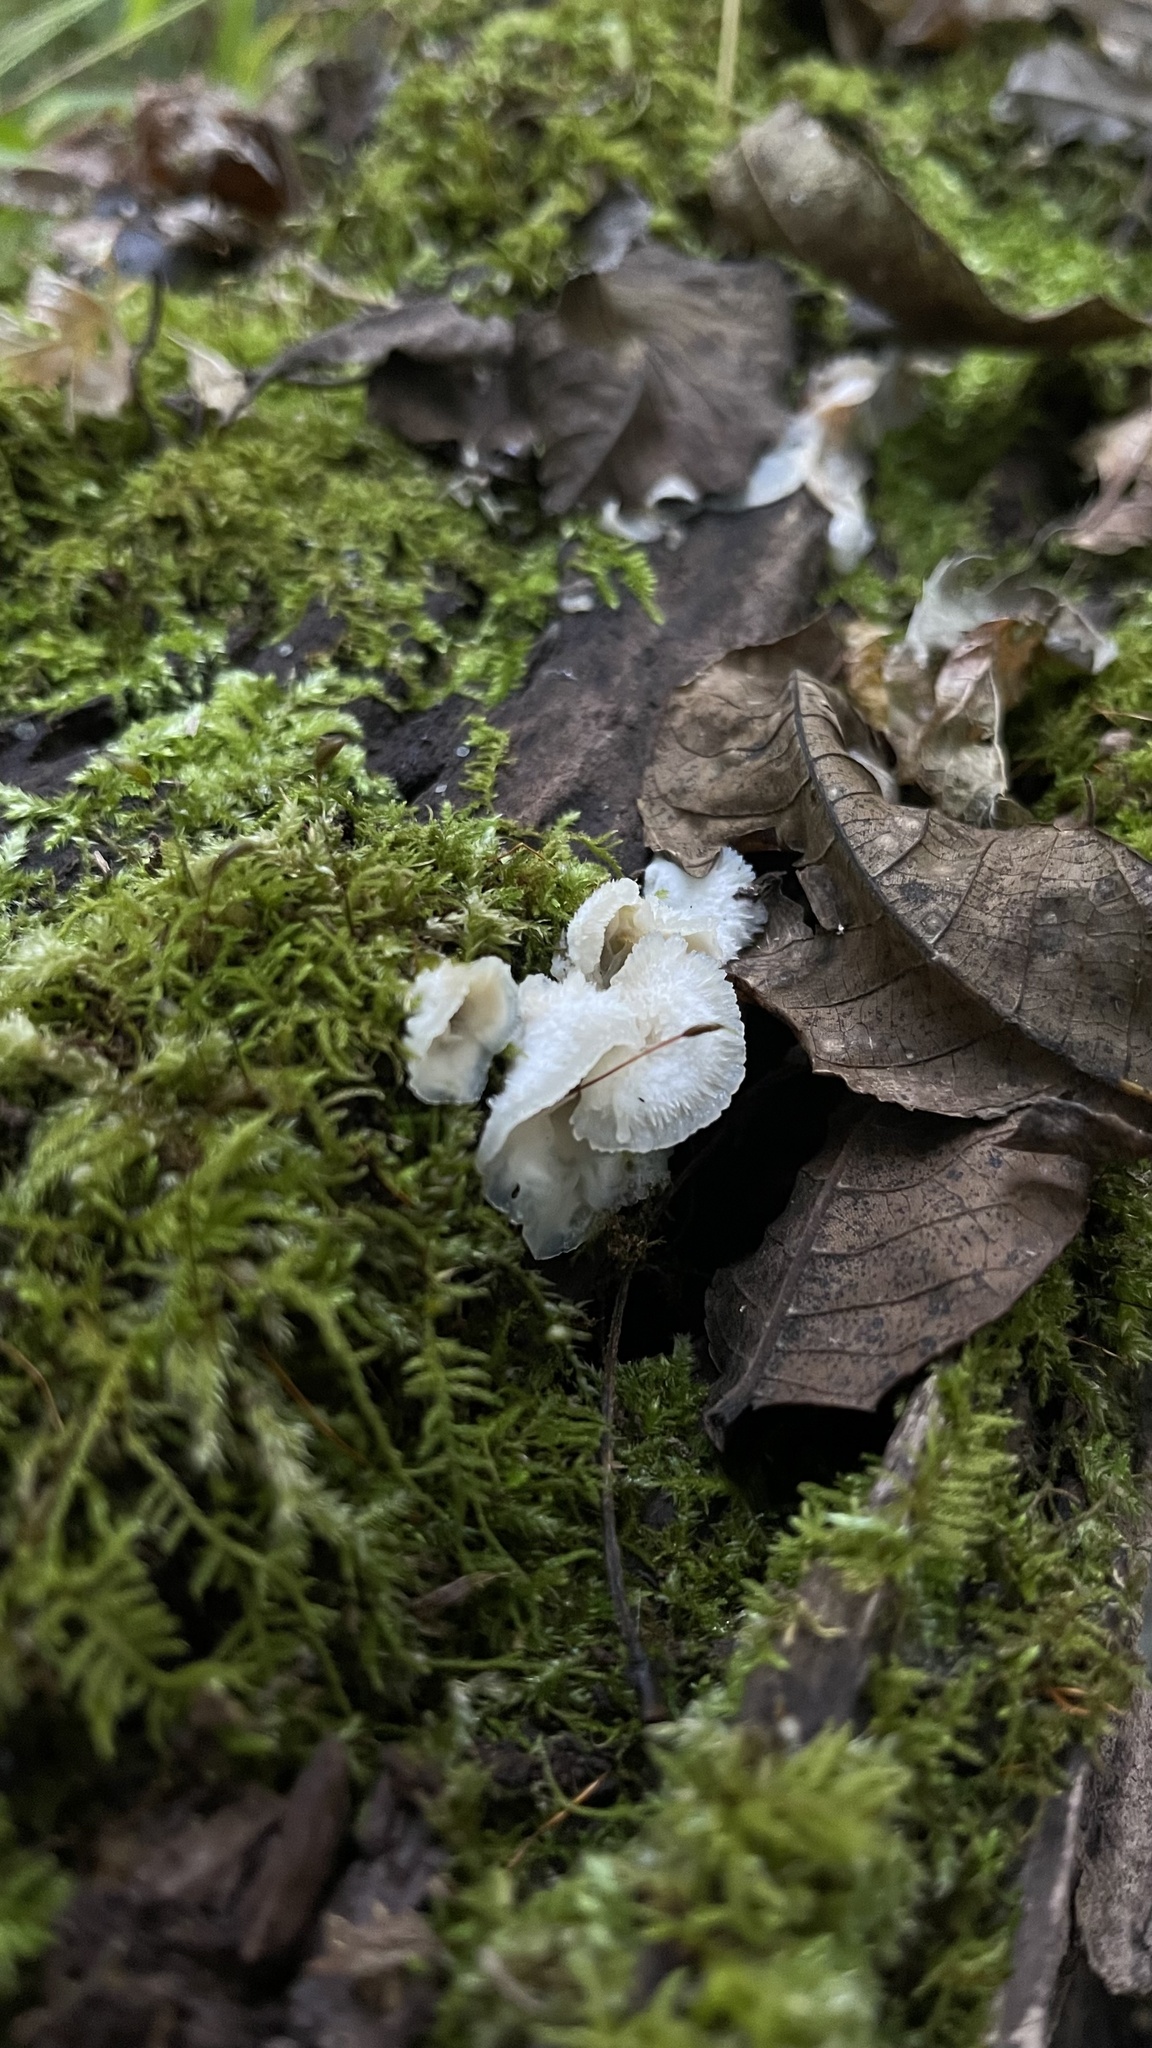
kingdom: Fungi
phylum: Basidiomycota
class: Agaricomycetes
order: Polyporales
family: Meruliaceae
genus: Phlebia
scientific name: Phlebia tremellosa
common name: Jelly rot
